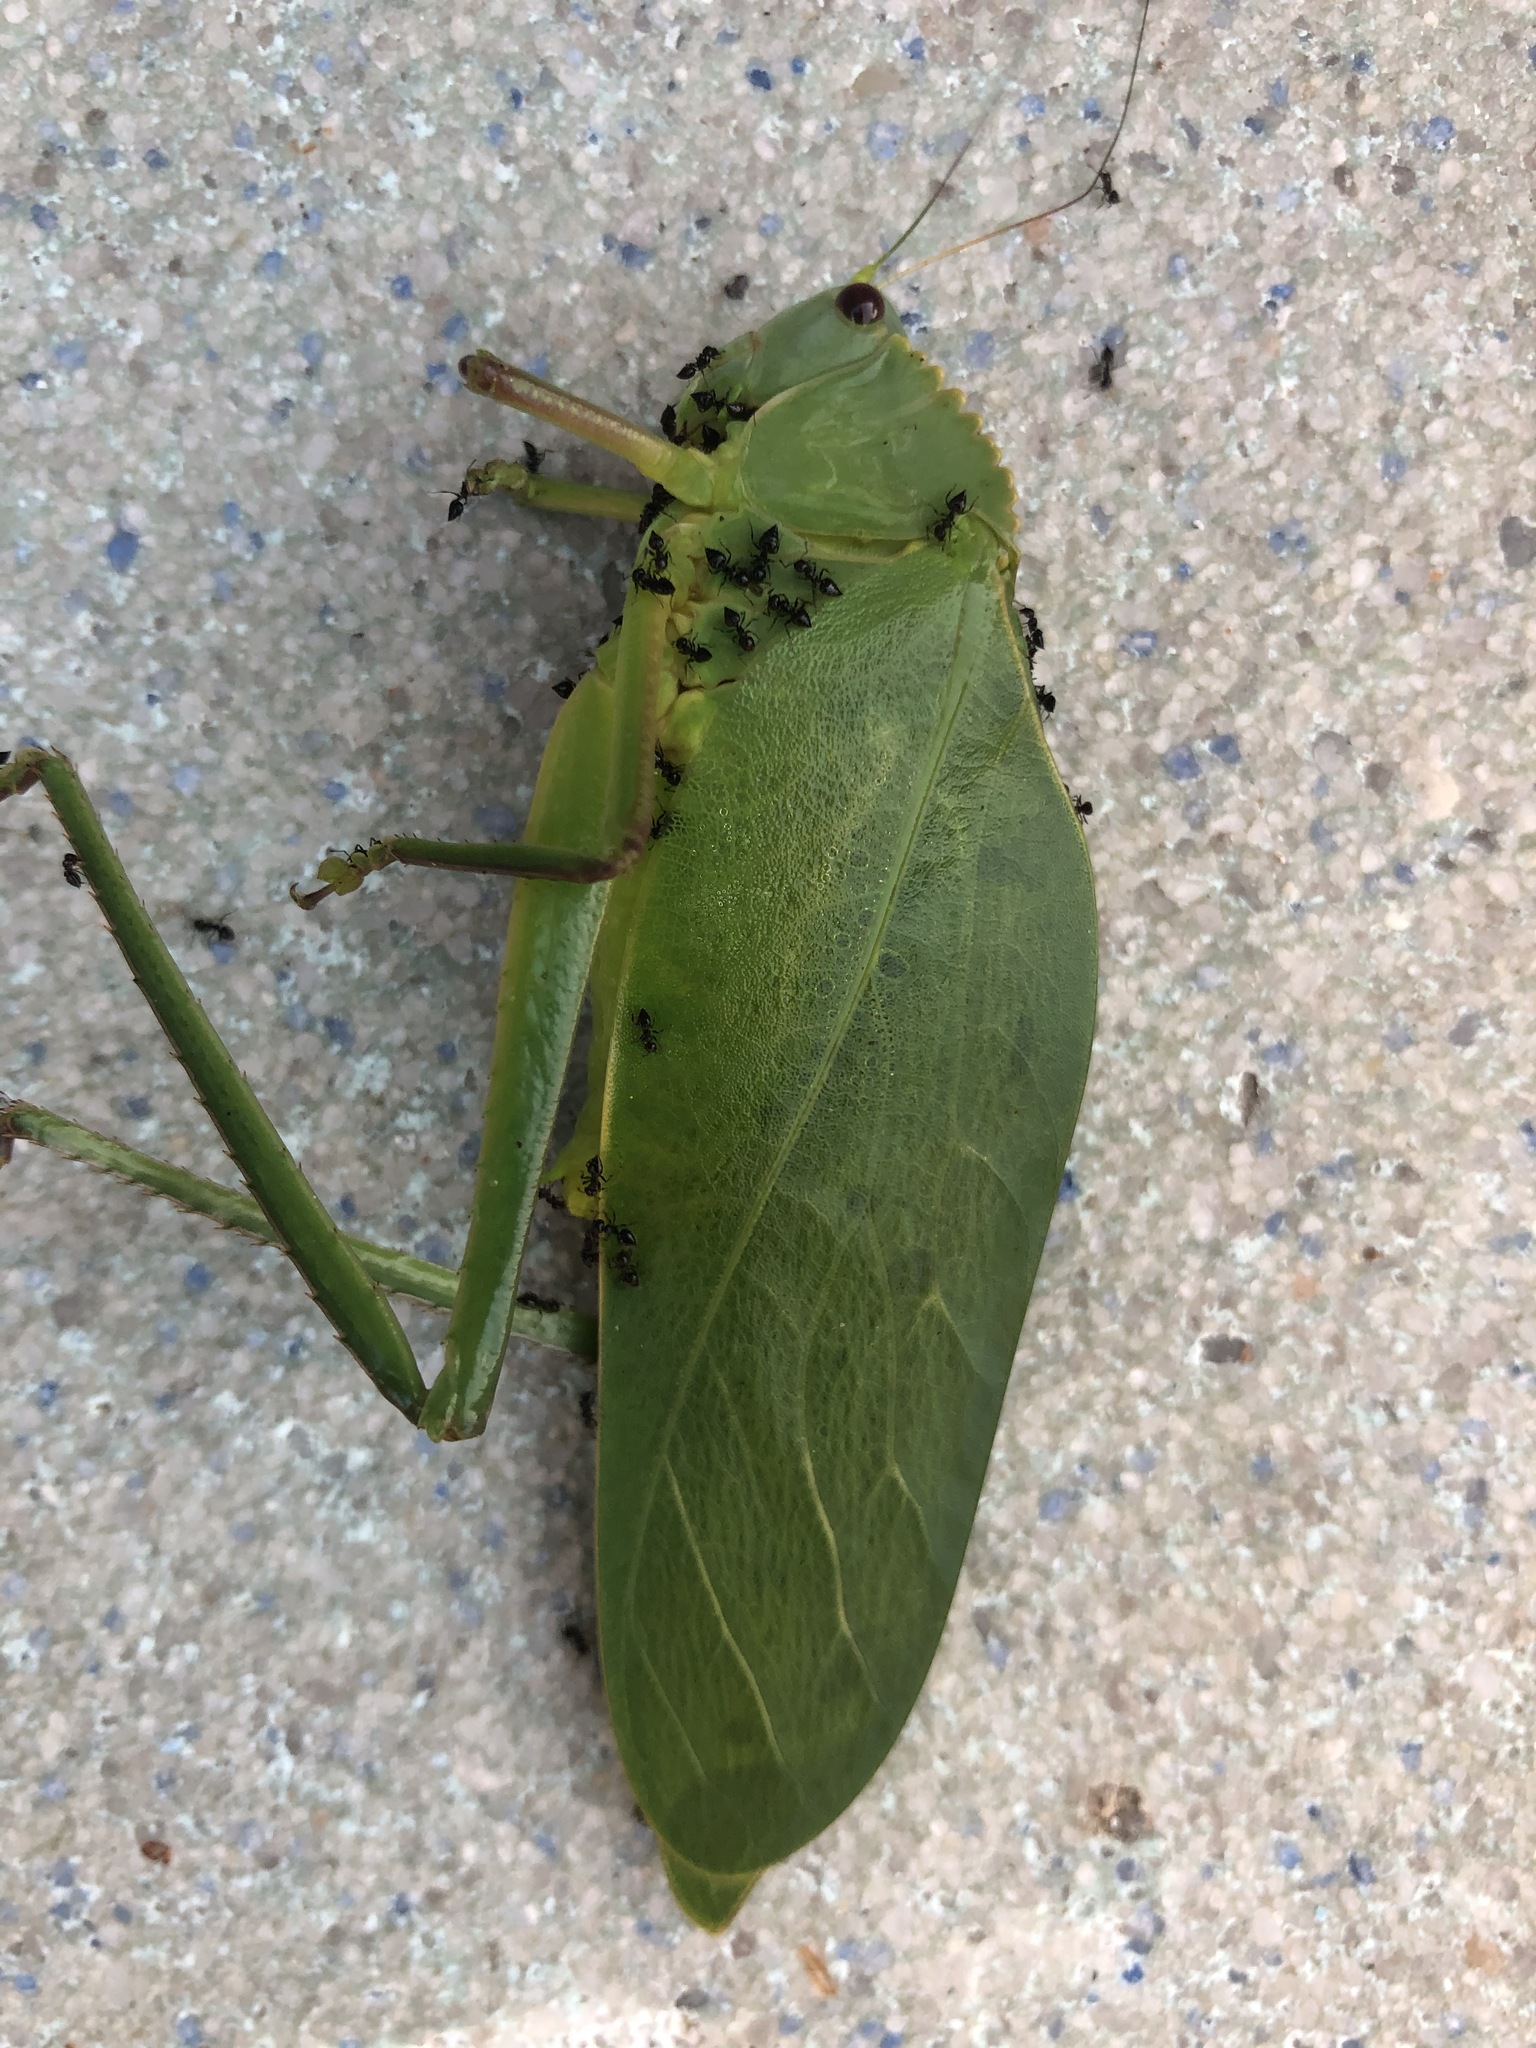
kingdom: Animalia
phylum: Arthropoda
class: Insecta
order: Orthoptera
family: Tettigoniidae
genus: Steirodon
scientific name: Steirodon stalii
